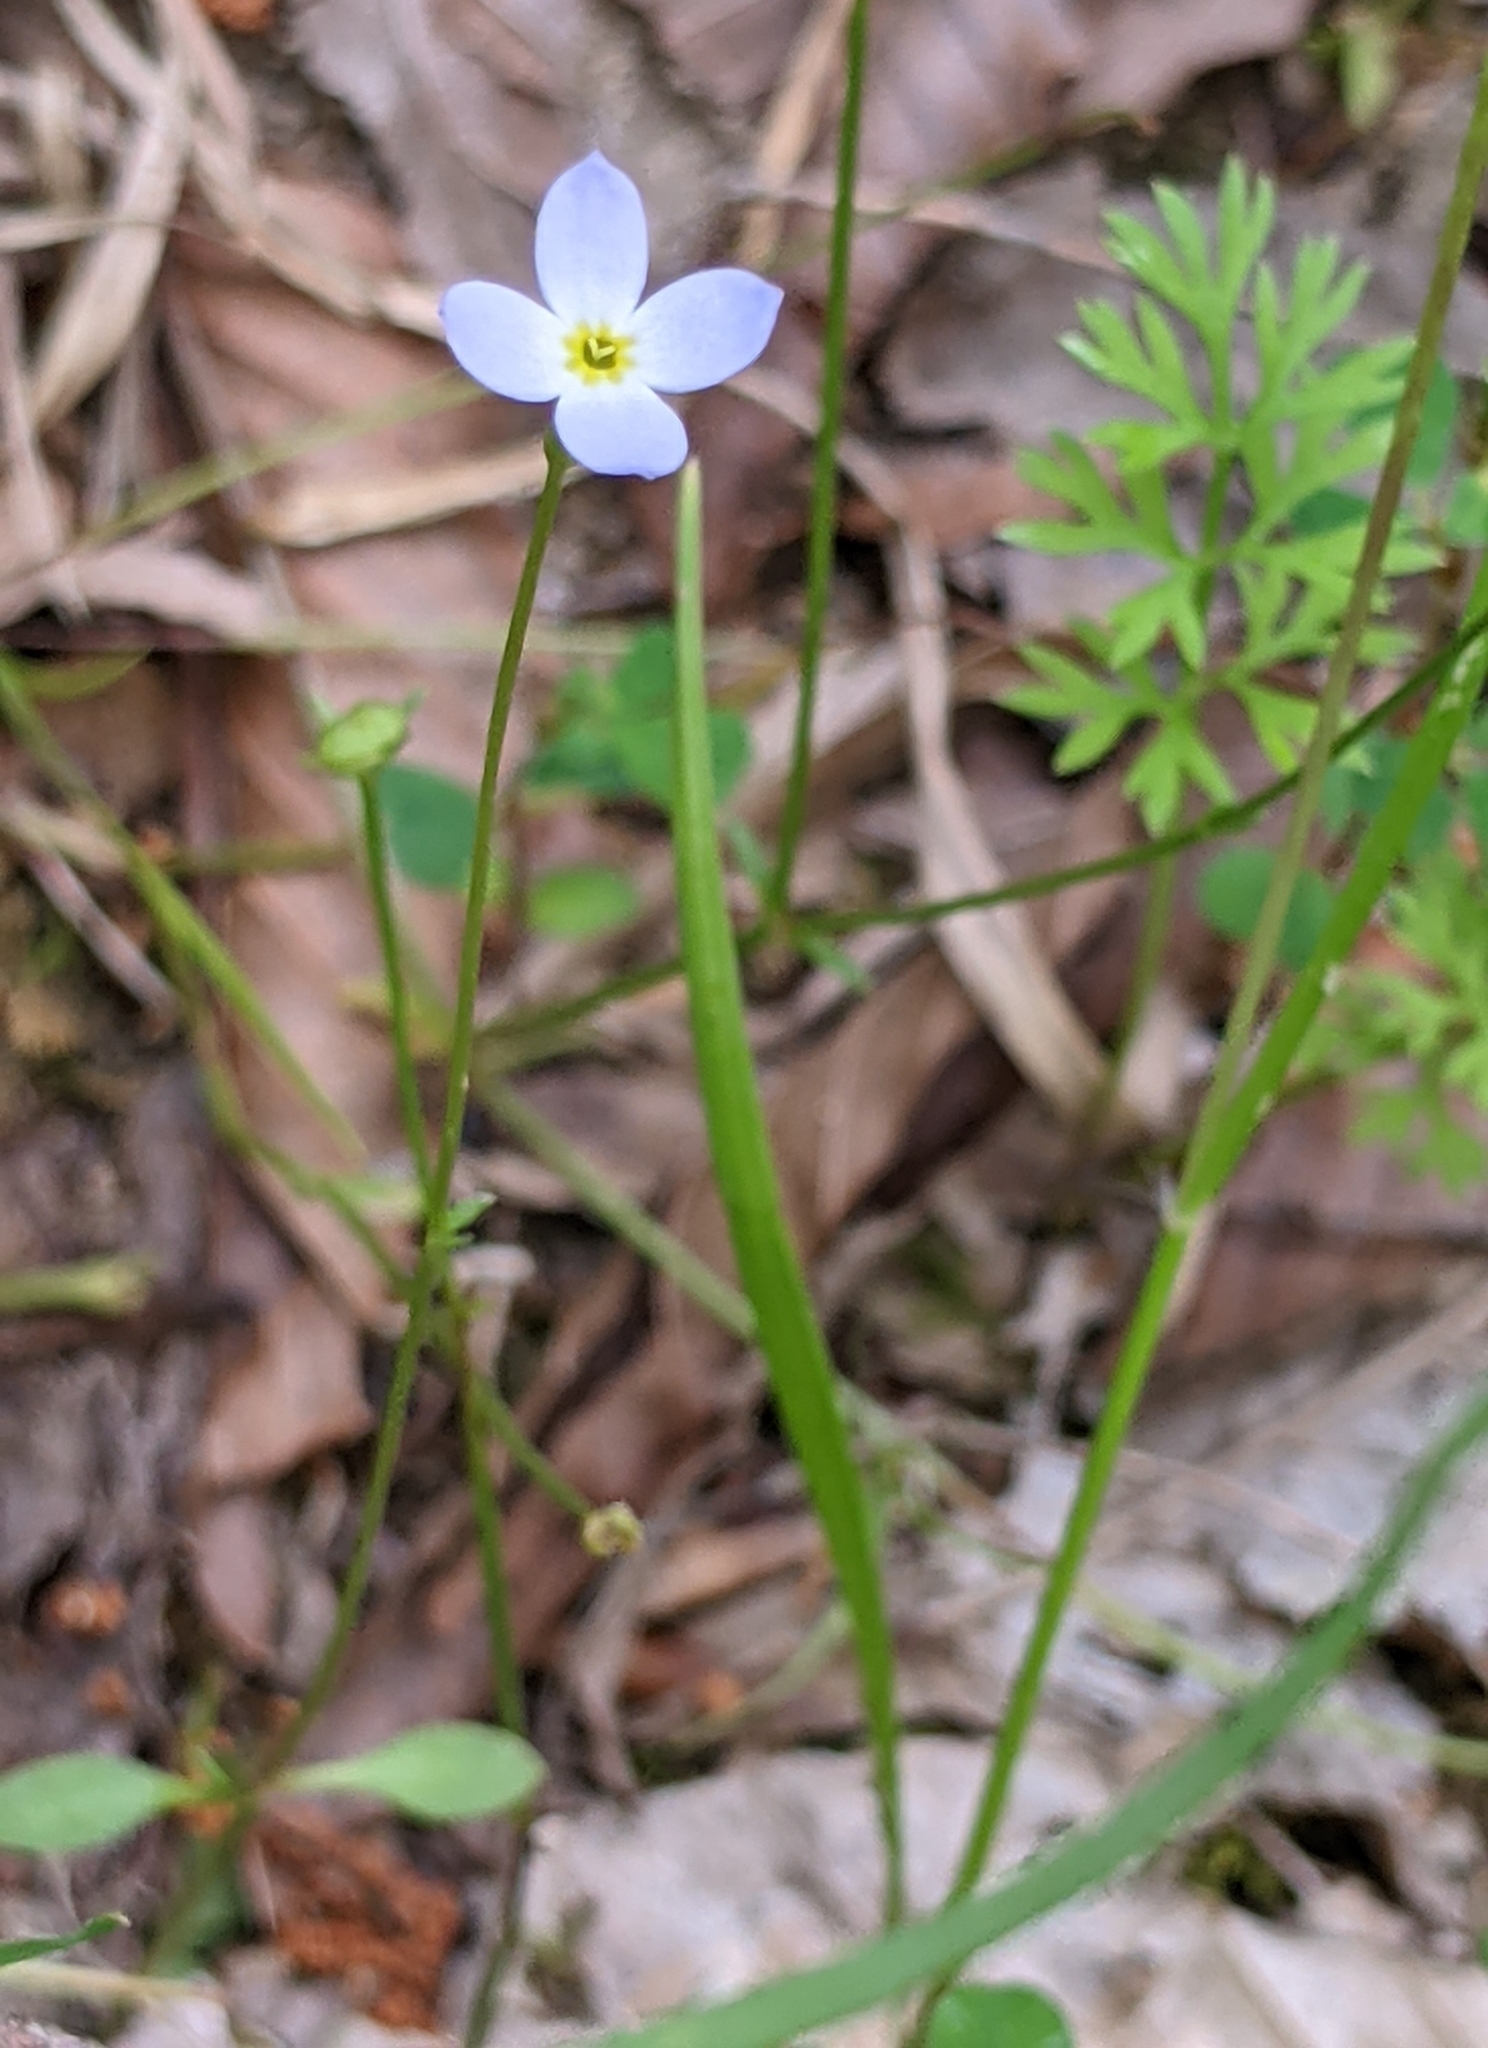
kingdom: Plantae
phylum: Tracheophyta
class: Magnoliopsida
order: Gentianales
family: Rubiaceae
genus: Houstonia
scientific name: Houstonia caerulea
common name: Bluets
